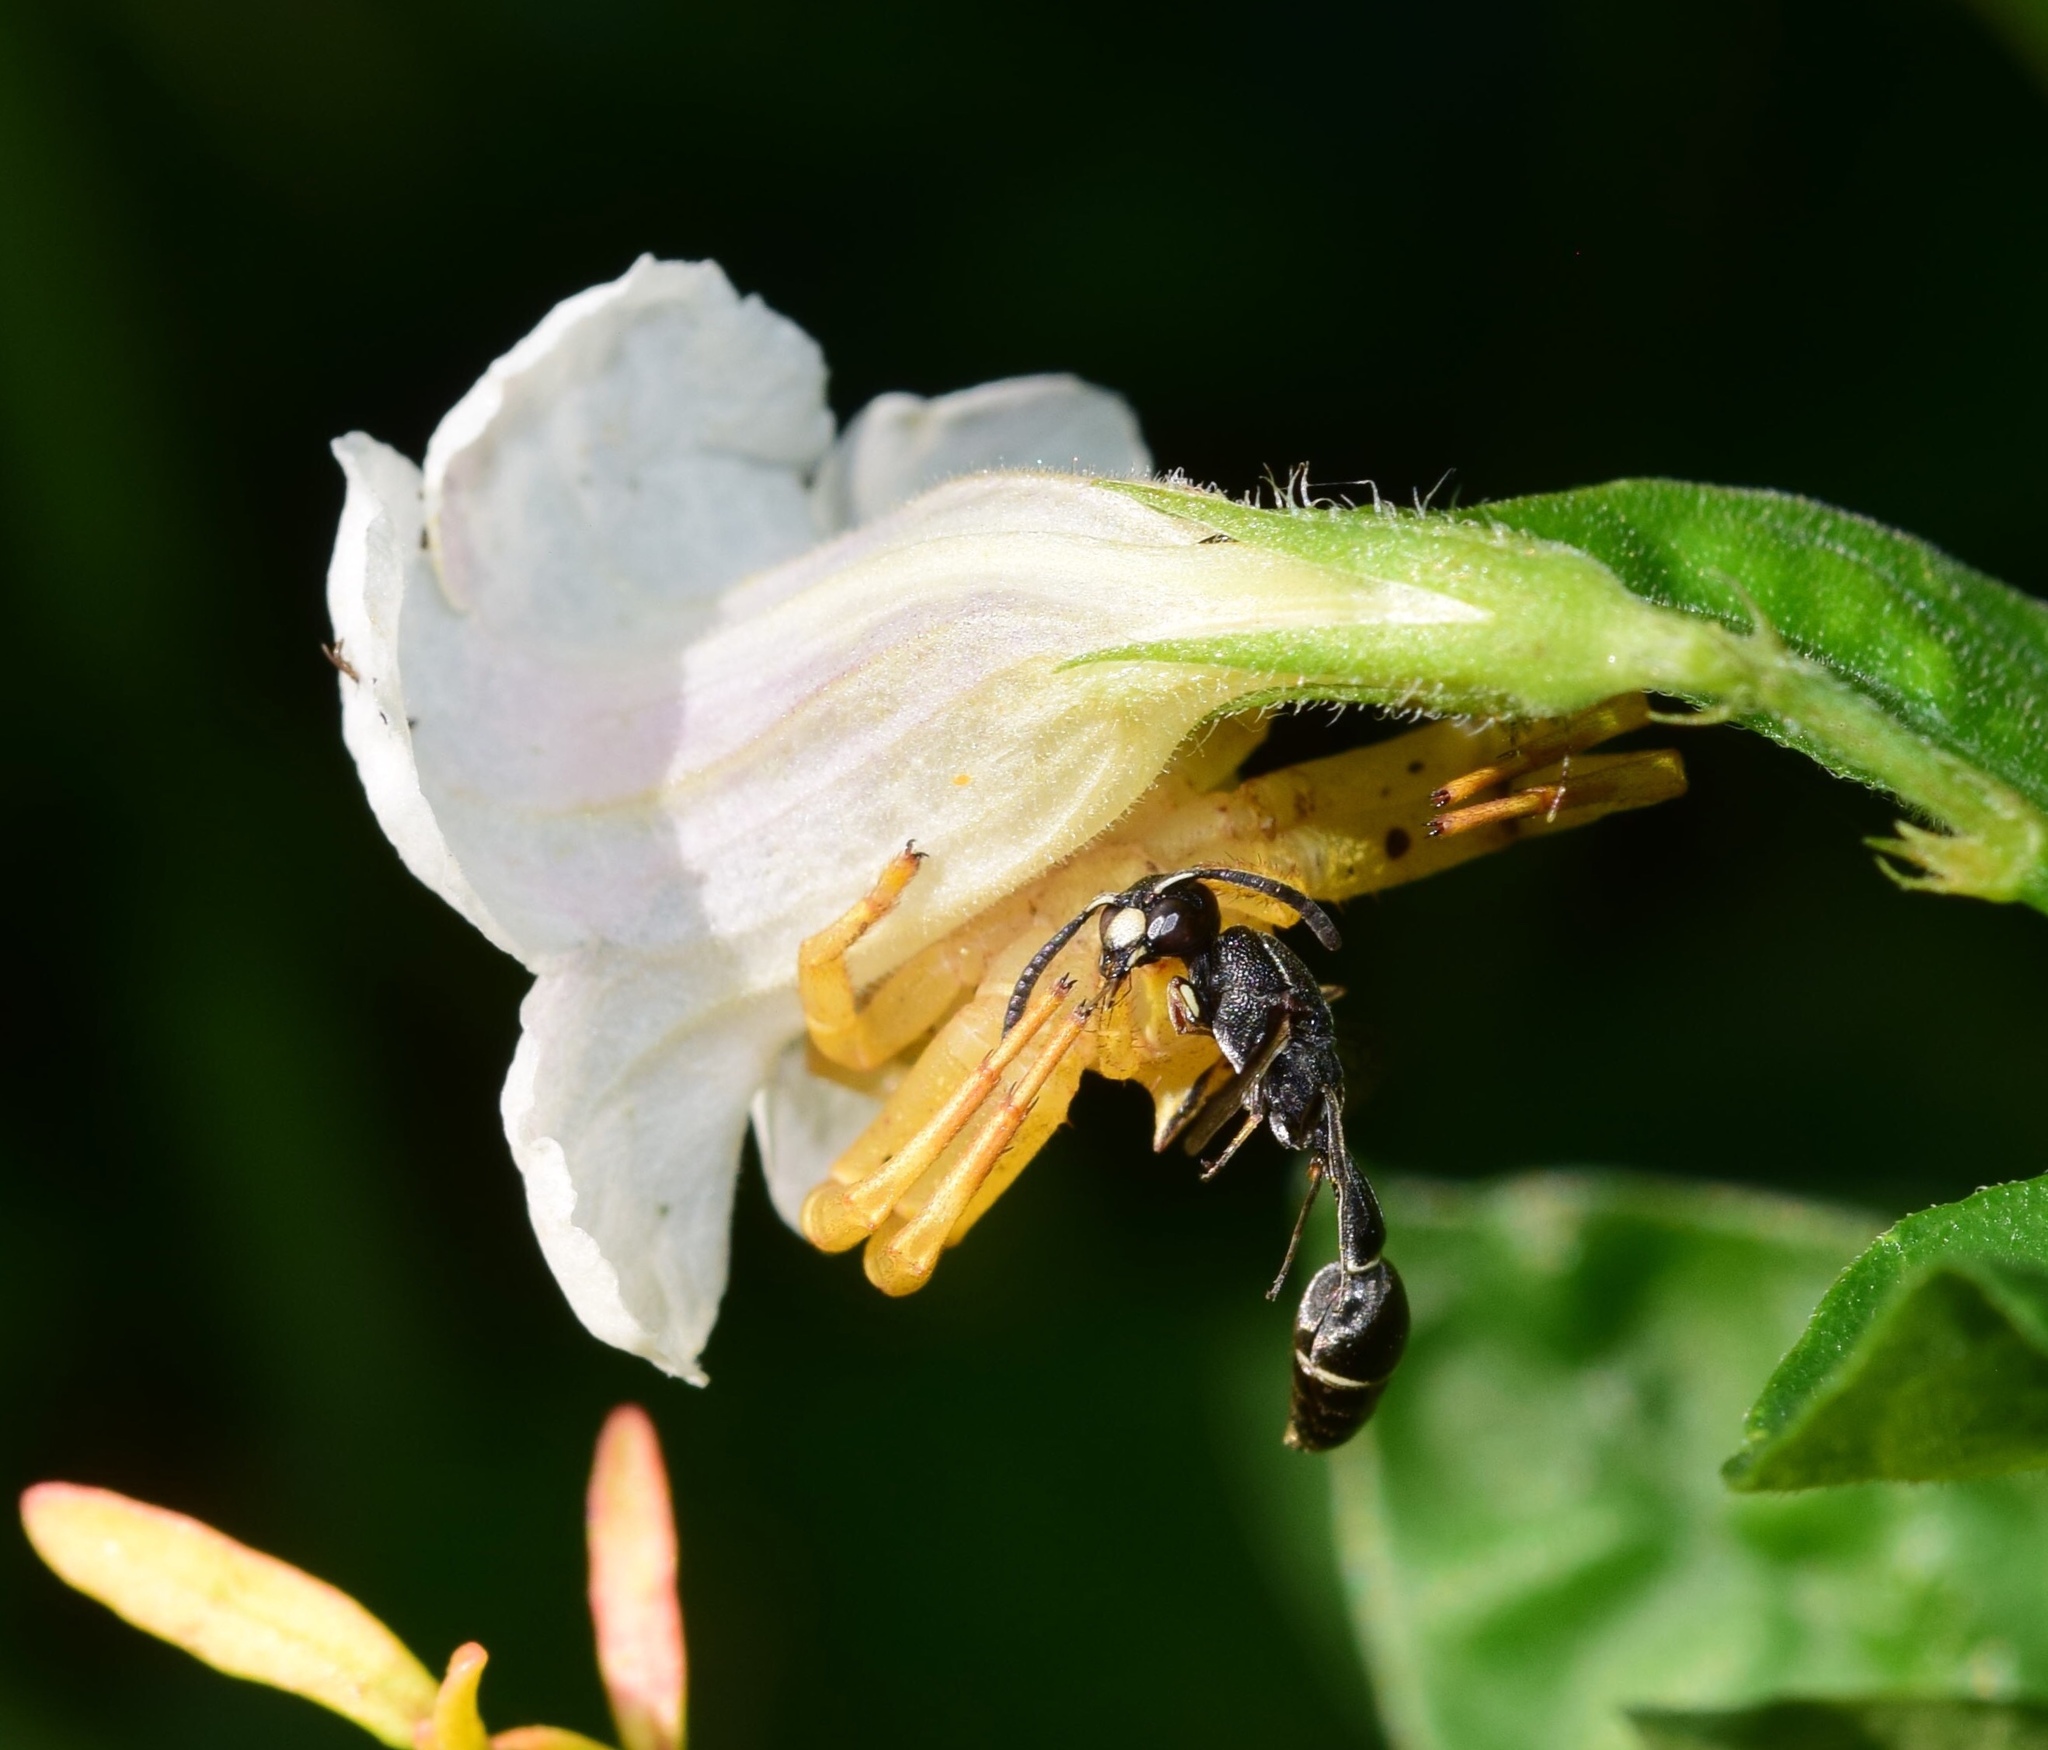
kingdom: Animalia
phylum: Arthropoda
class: Insecta
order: Hymenoptera
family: Eumenidae
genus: Micreumenes
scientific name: Micreumenes
